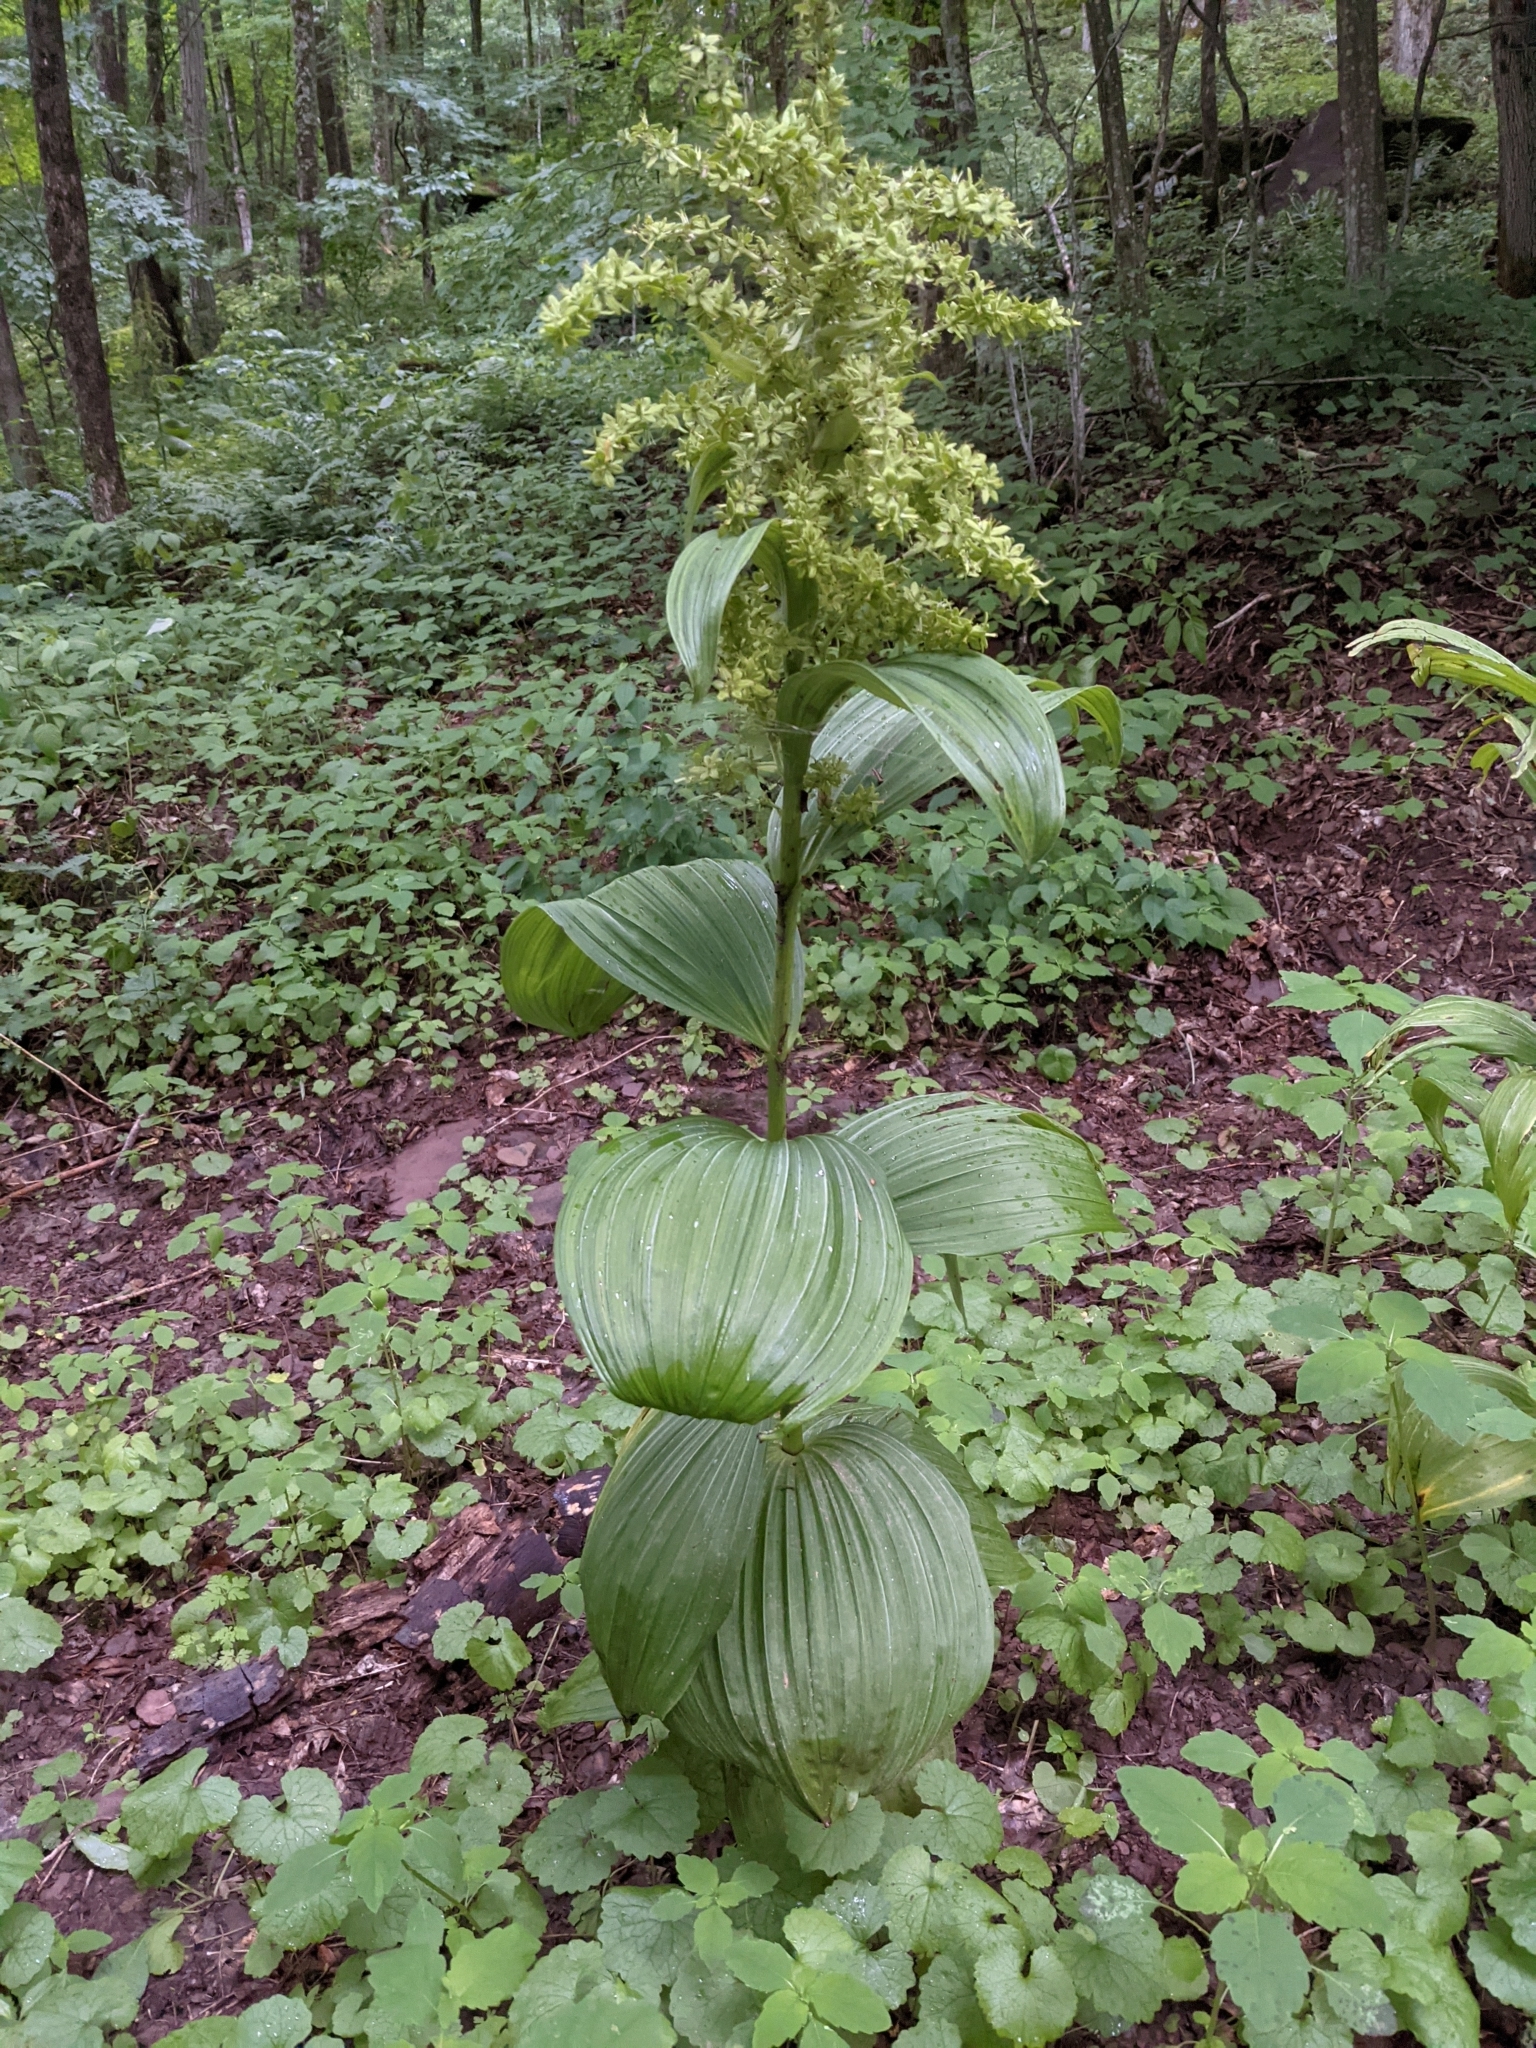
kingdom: Plantae
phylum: Tracheophyta
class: Liliopsida
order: Liliales
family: Melanthiaceae
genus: Veratrum
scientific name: Veratrum viride
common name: American false hellebore
